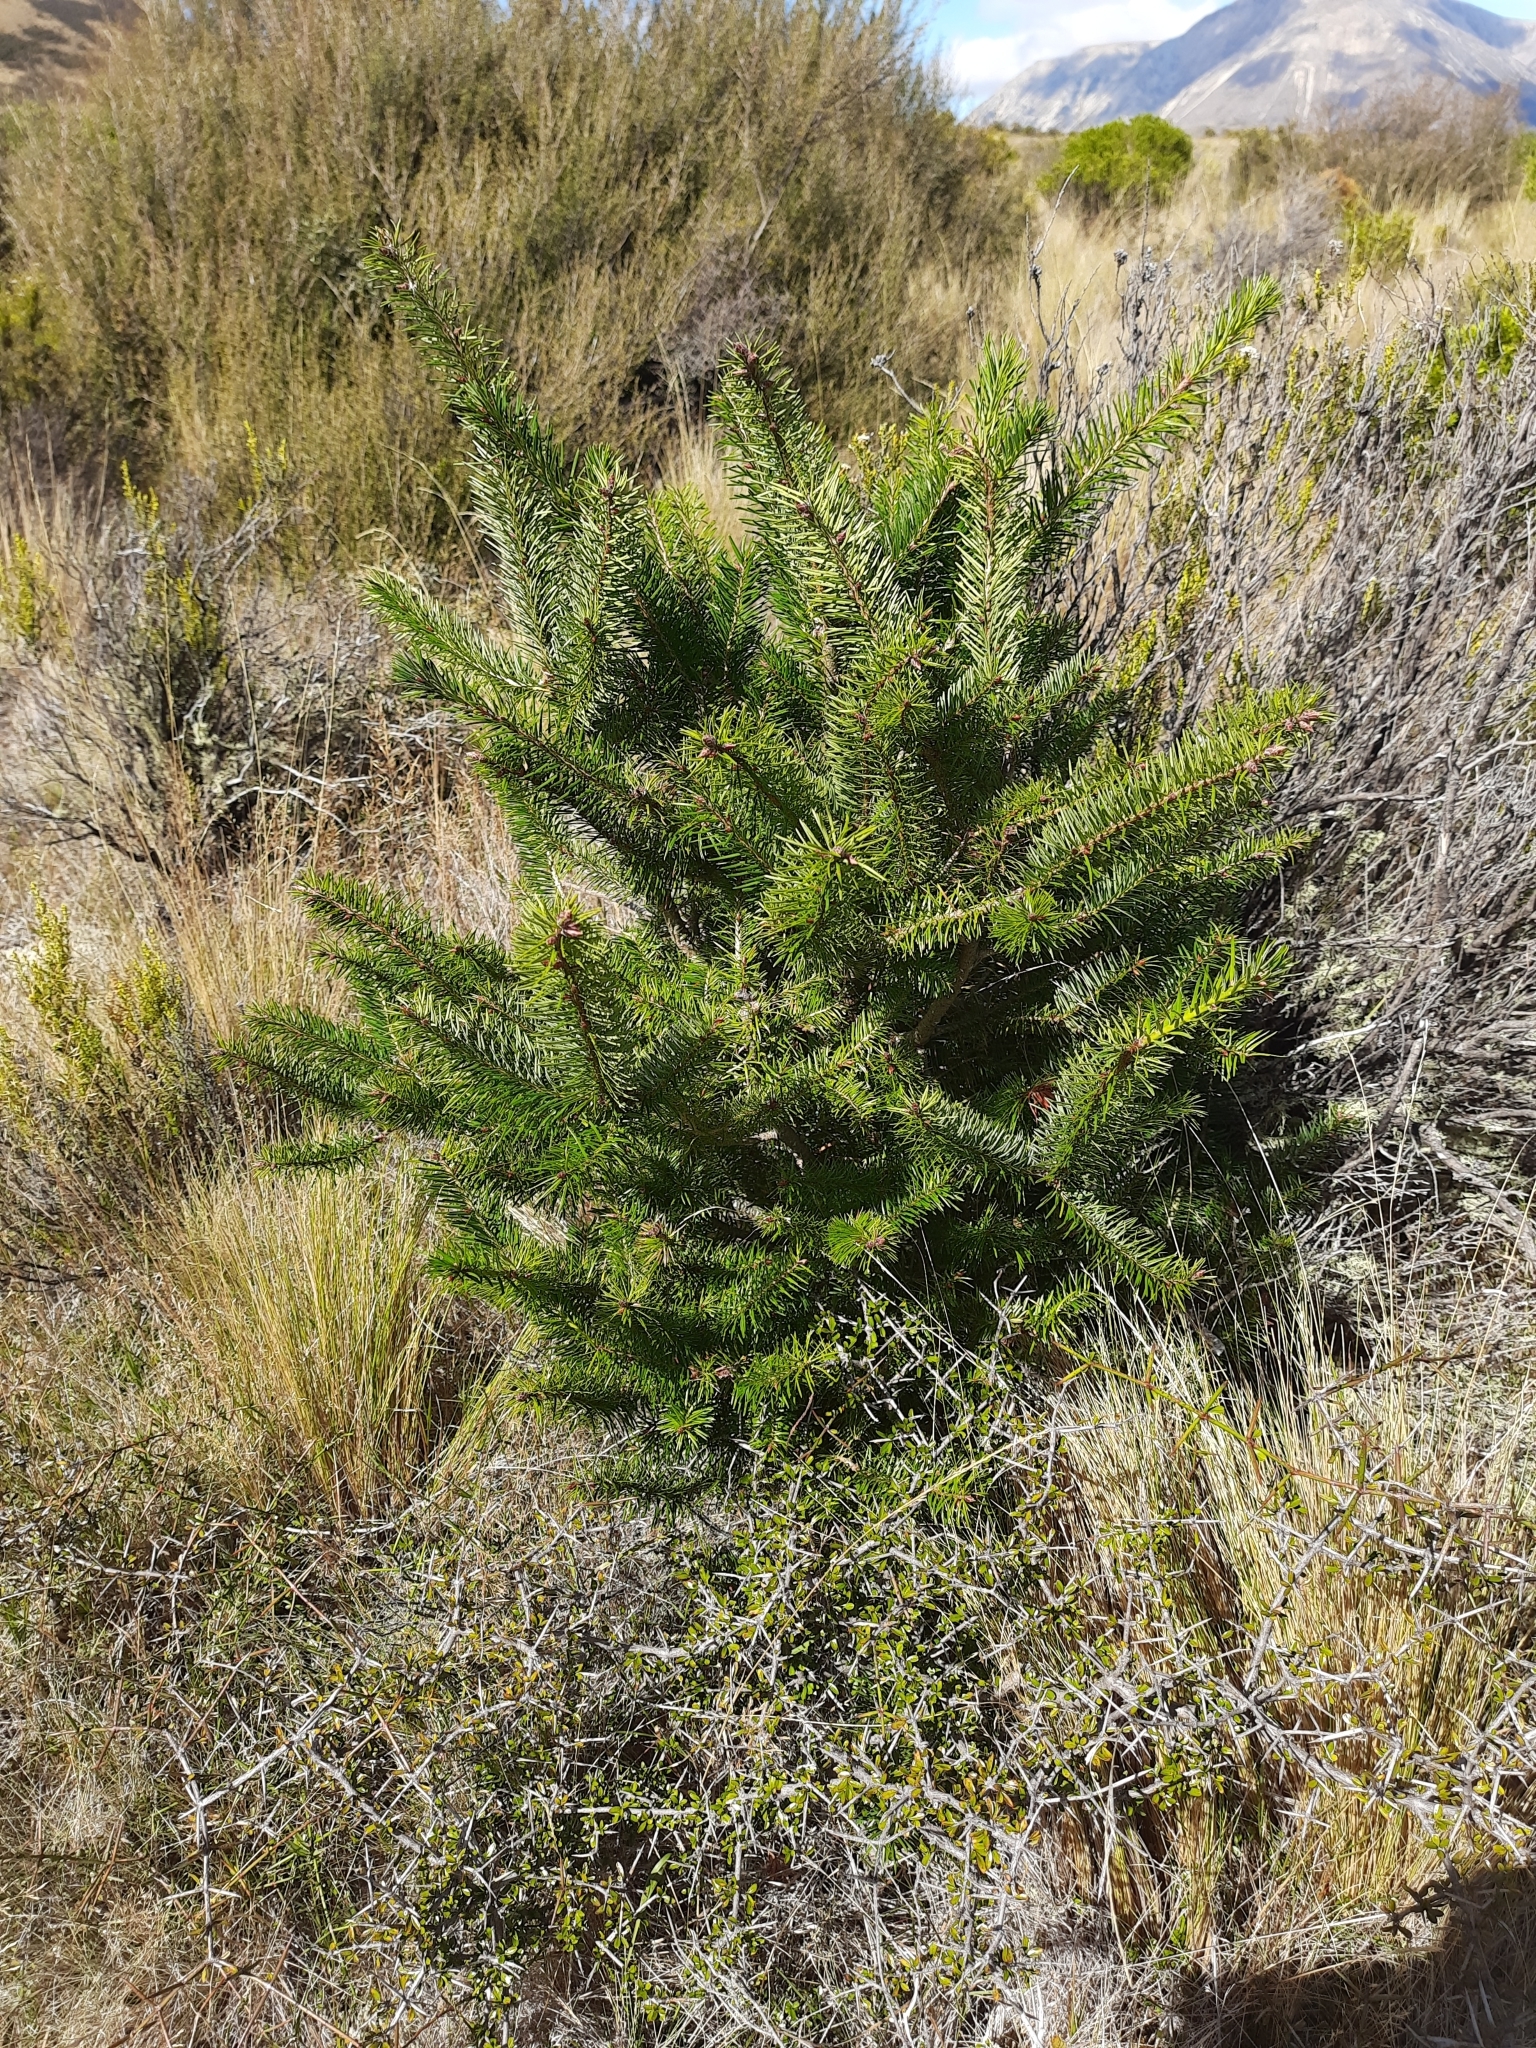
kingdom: Plantae
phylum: Tracheophyta
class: Pinopsida
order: Pinales
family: Pinaceae
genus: Pseudotsuga
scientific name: Pseudotsuga menziesii
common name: Douglas fir
